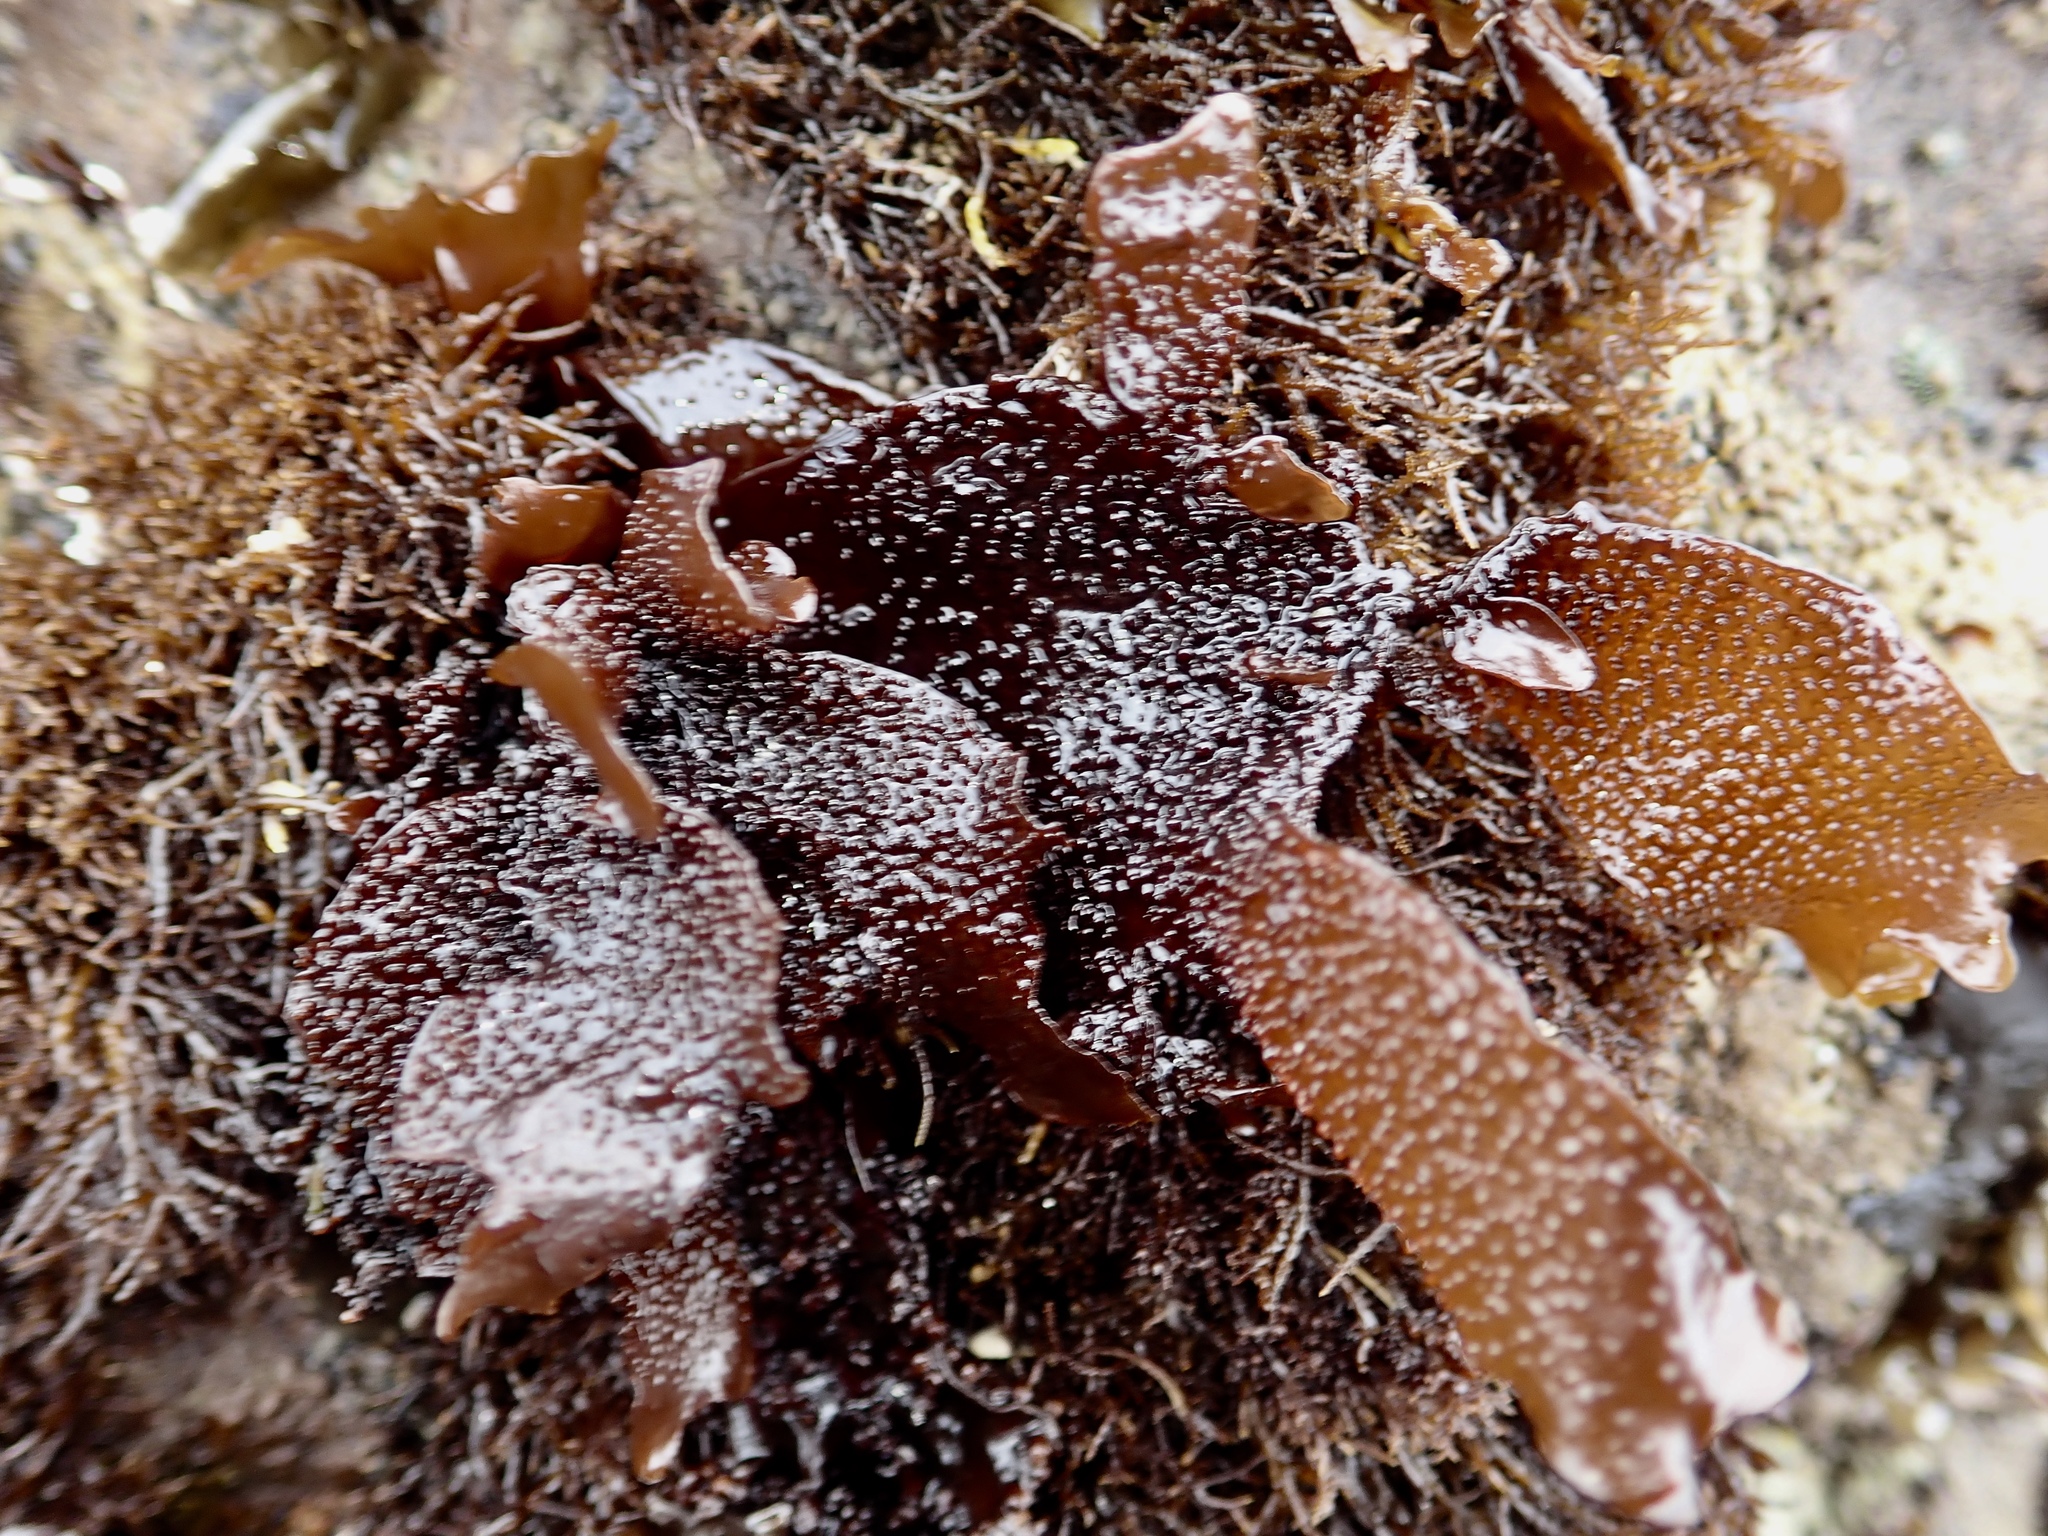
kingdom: Plantae
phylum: Rhodophyta
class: Florideophyceae
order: Gigartinales
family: Phyllophoraceae
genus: Mastocarpus
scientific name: Mastocarpus papillatus
